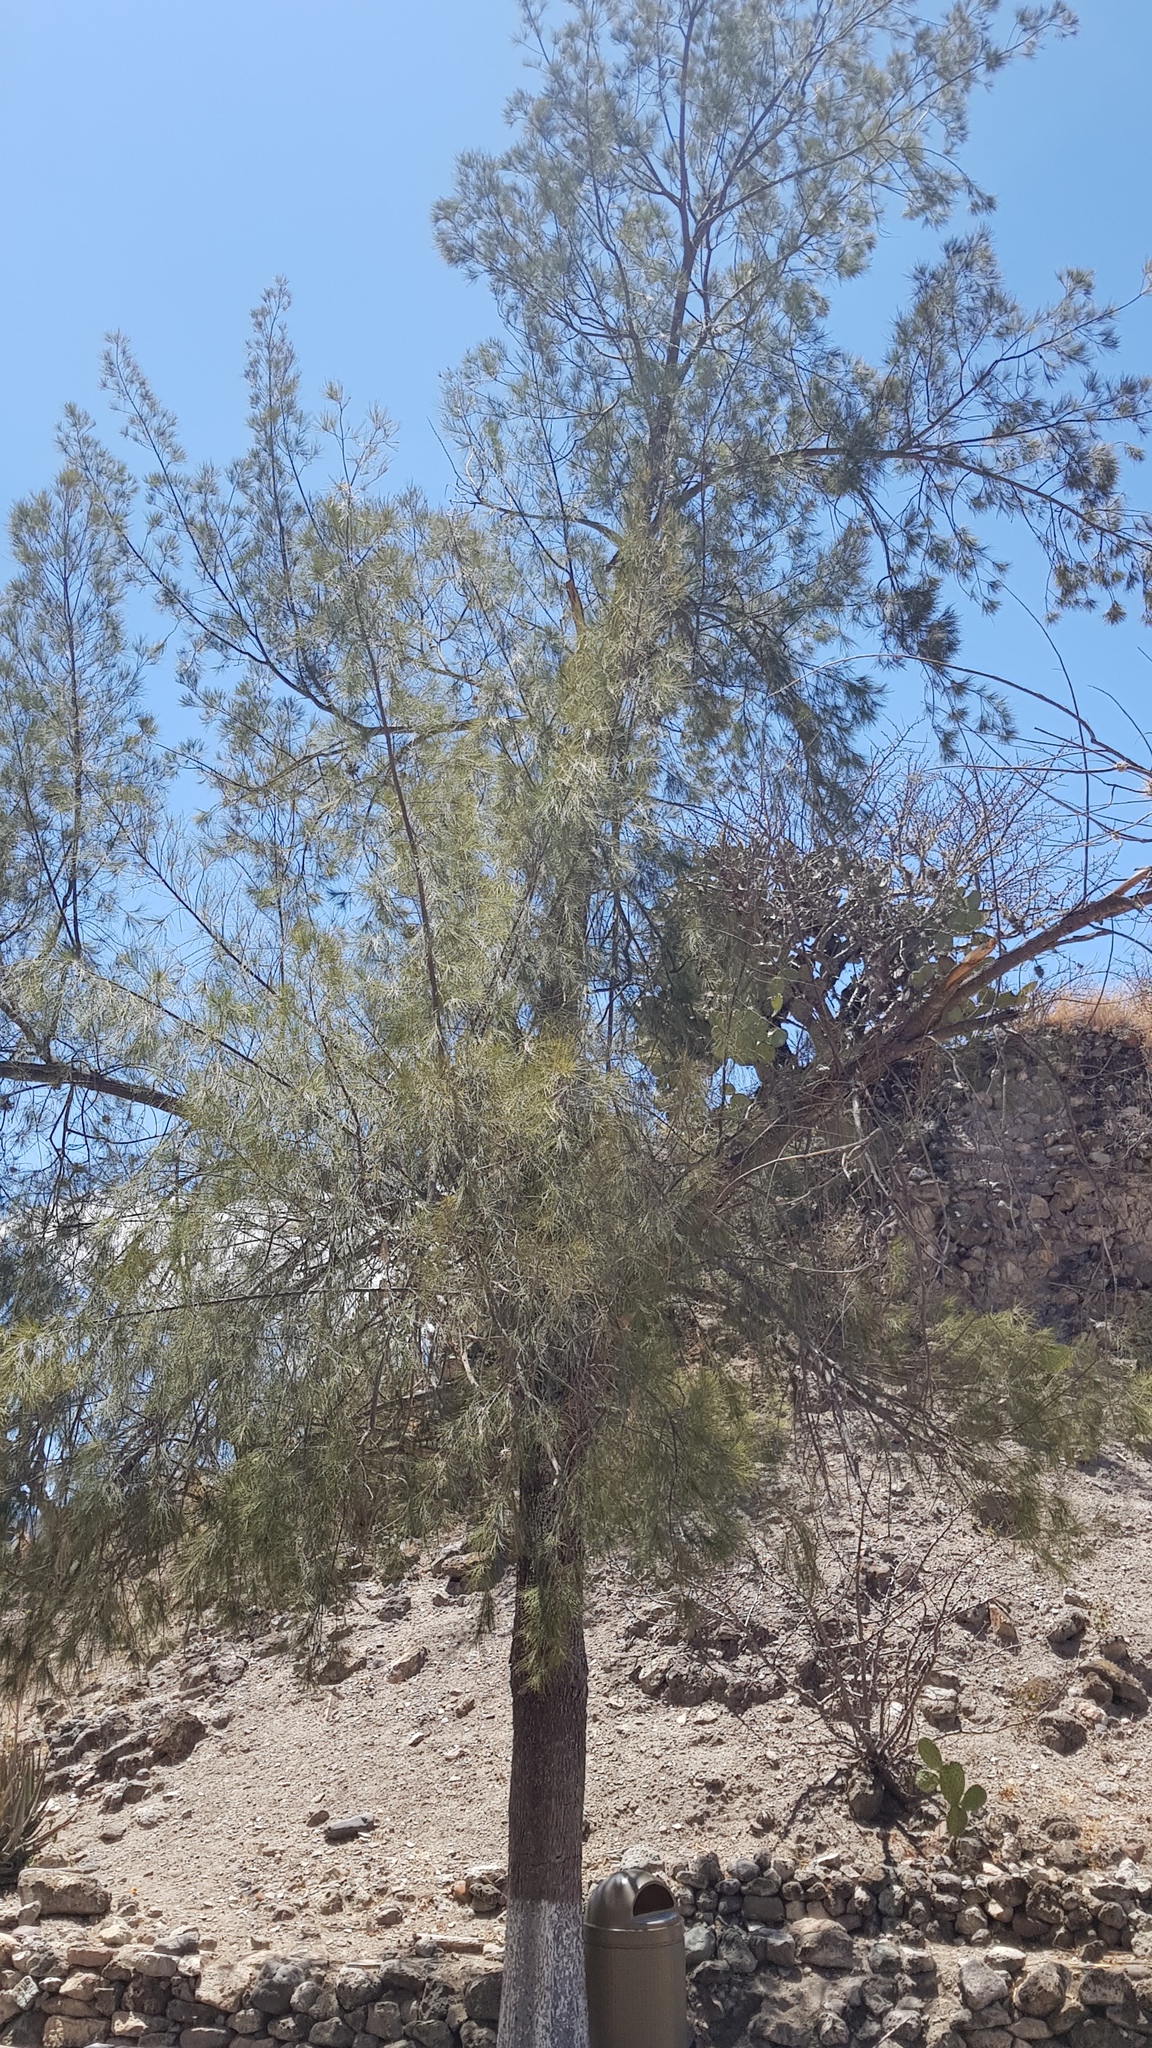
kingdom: Plantae
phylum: Tracheophyta
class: Magnoliopsida
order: Fagales
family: Casuarinaceae
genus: Casuarina
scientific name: Casuarina equisetifolia
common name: Beach sheoak
